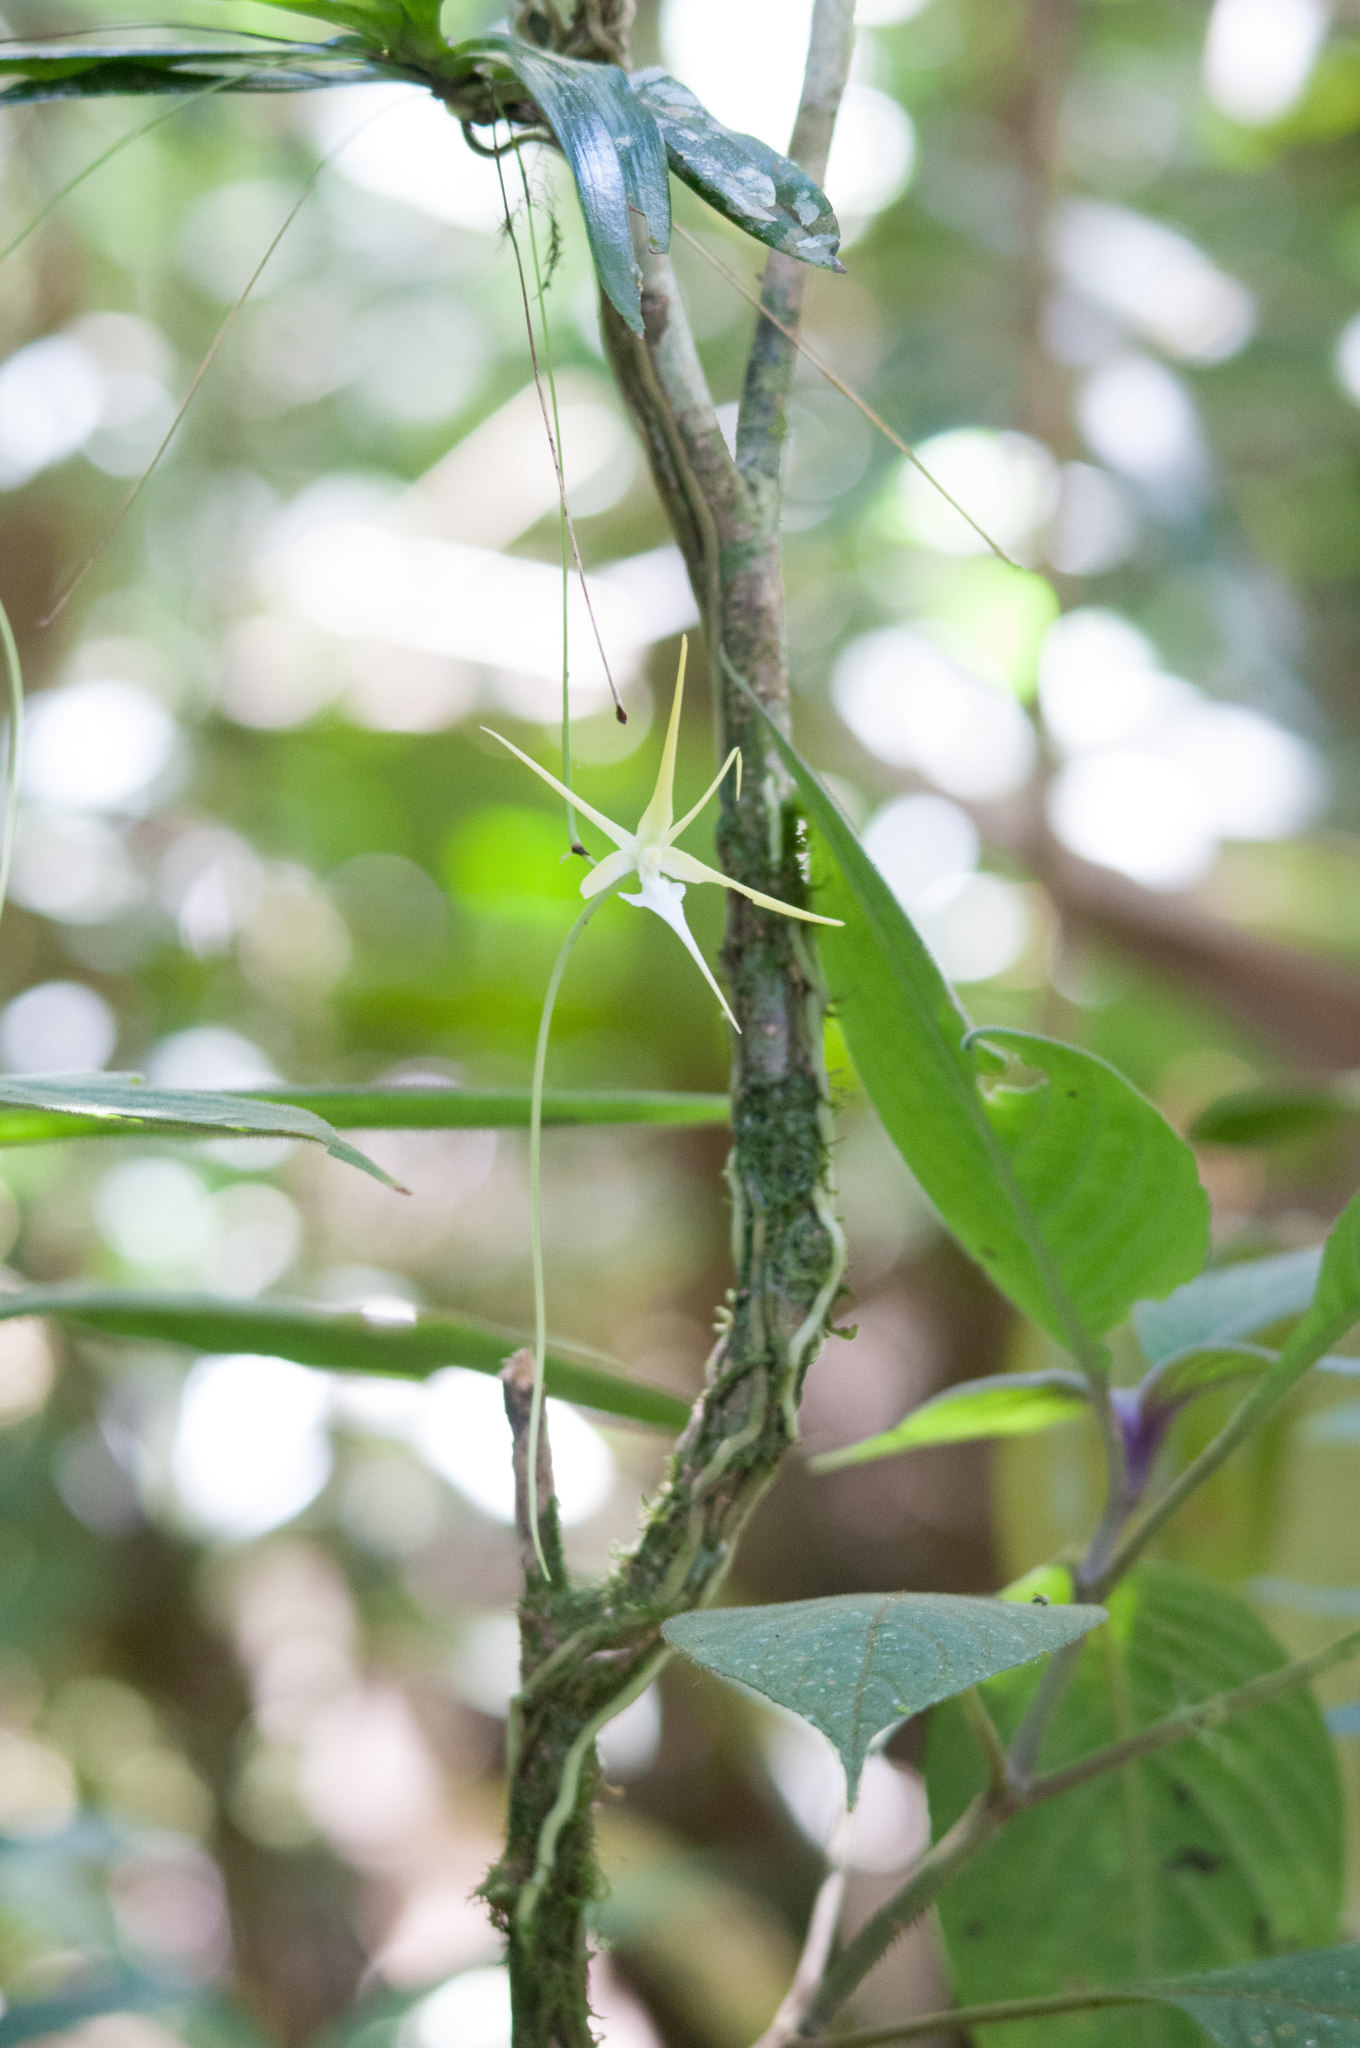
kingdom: Plantae
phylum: Tracheophyta
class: Liliopsida
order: Asparagales
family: Orchidaceae
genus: Aeranthes
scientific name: Aeranthes schlechteri
